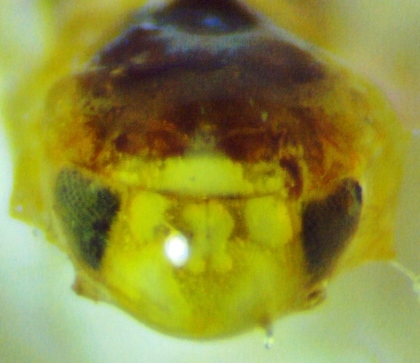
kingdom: Animalia
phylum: Arthropoda
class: Insecta
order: Hemiptera
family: Cicadellidae
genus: Eratoneura
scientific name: Eratoneura ardens
